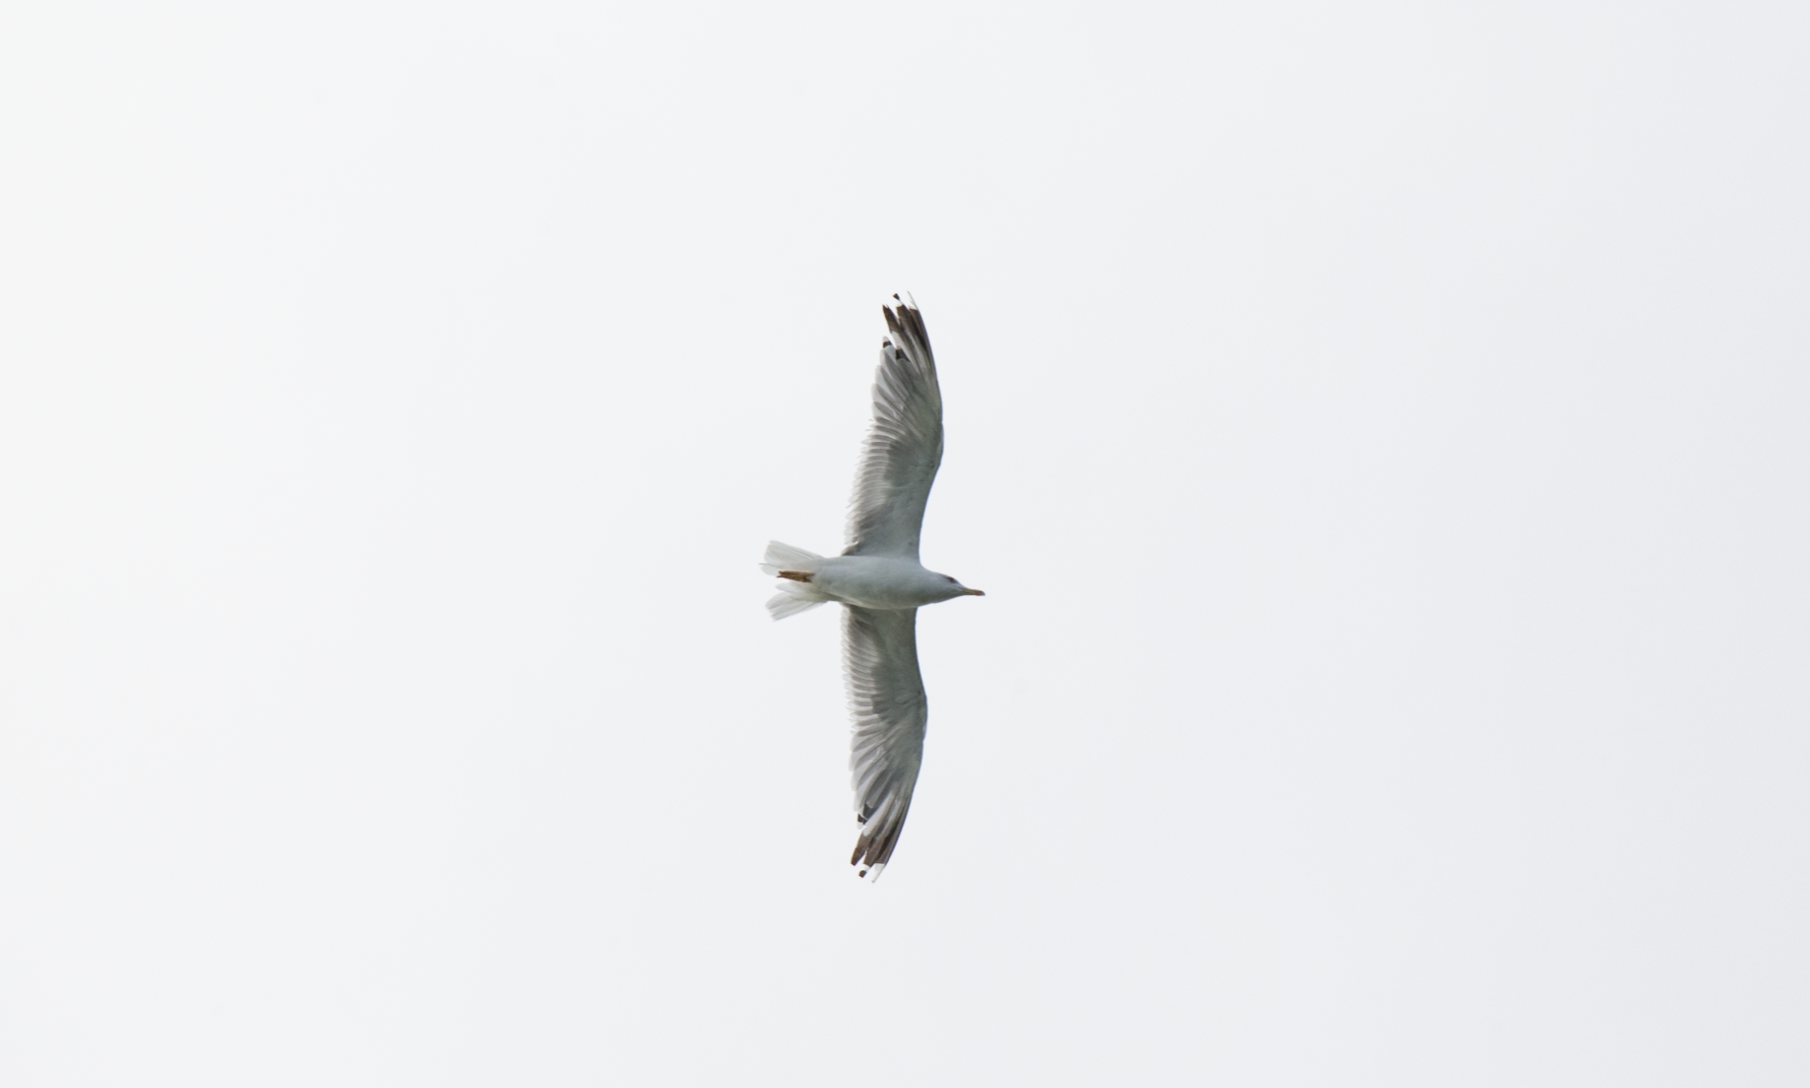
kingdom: Animalia
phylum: Chordata
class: Aves
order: Charadriiformes
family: Laridae
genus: Larus
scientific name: Larus michahellis
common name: Yellow-legged gull
